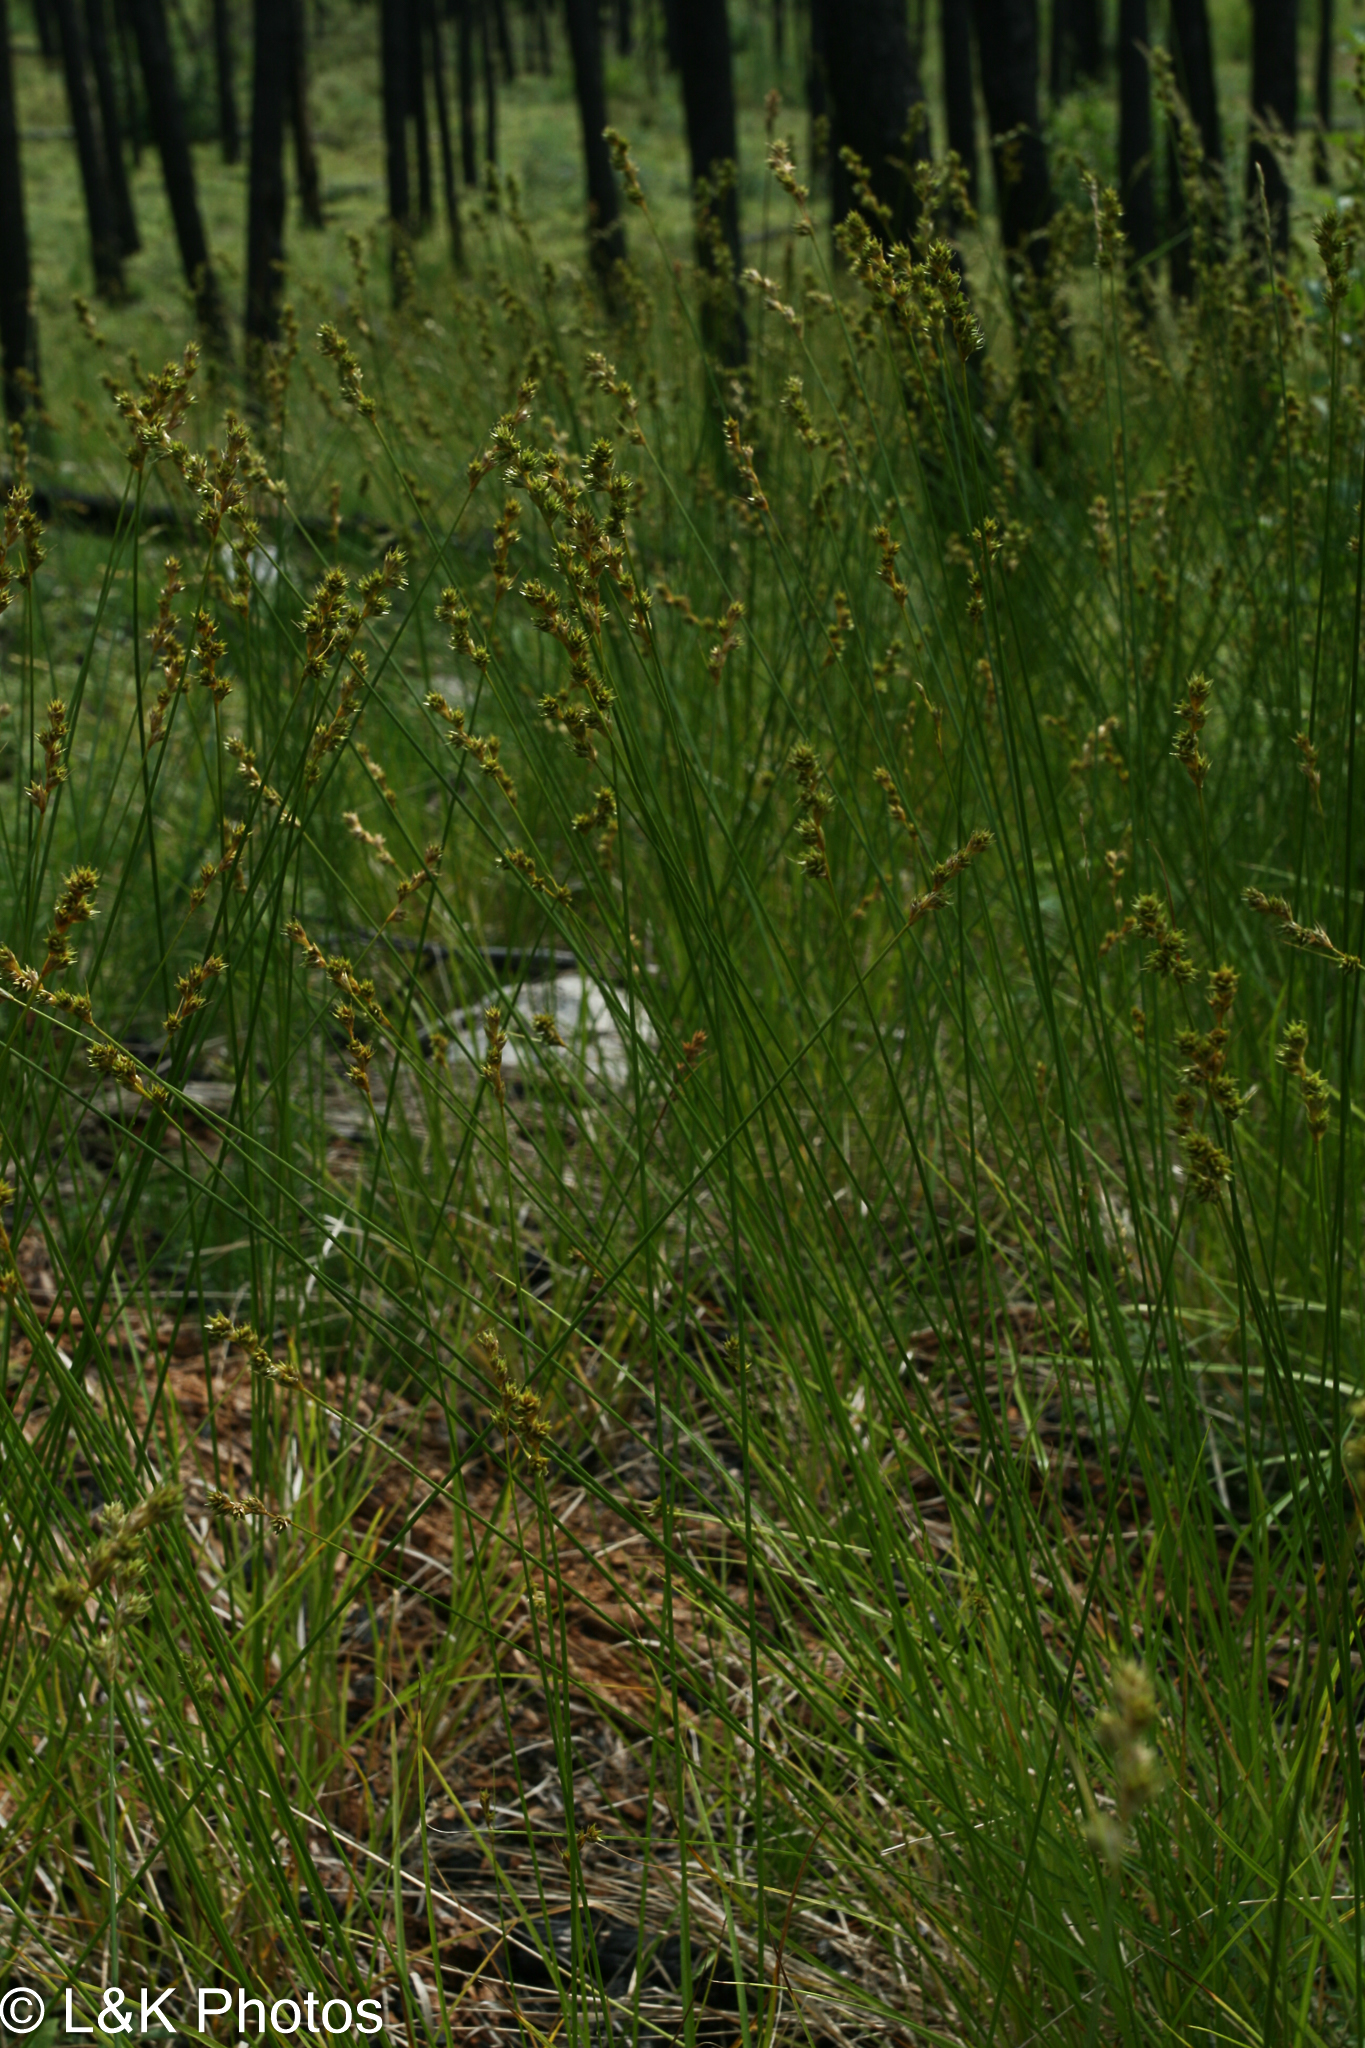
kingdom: Plantae
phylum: Tracheophyta
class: Liliopsida
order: Poales
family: Cyperaceae
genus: Carex
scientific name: Carex brunnescens
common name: Brown sedge
